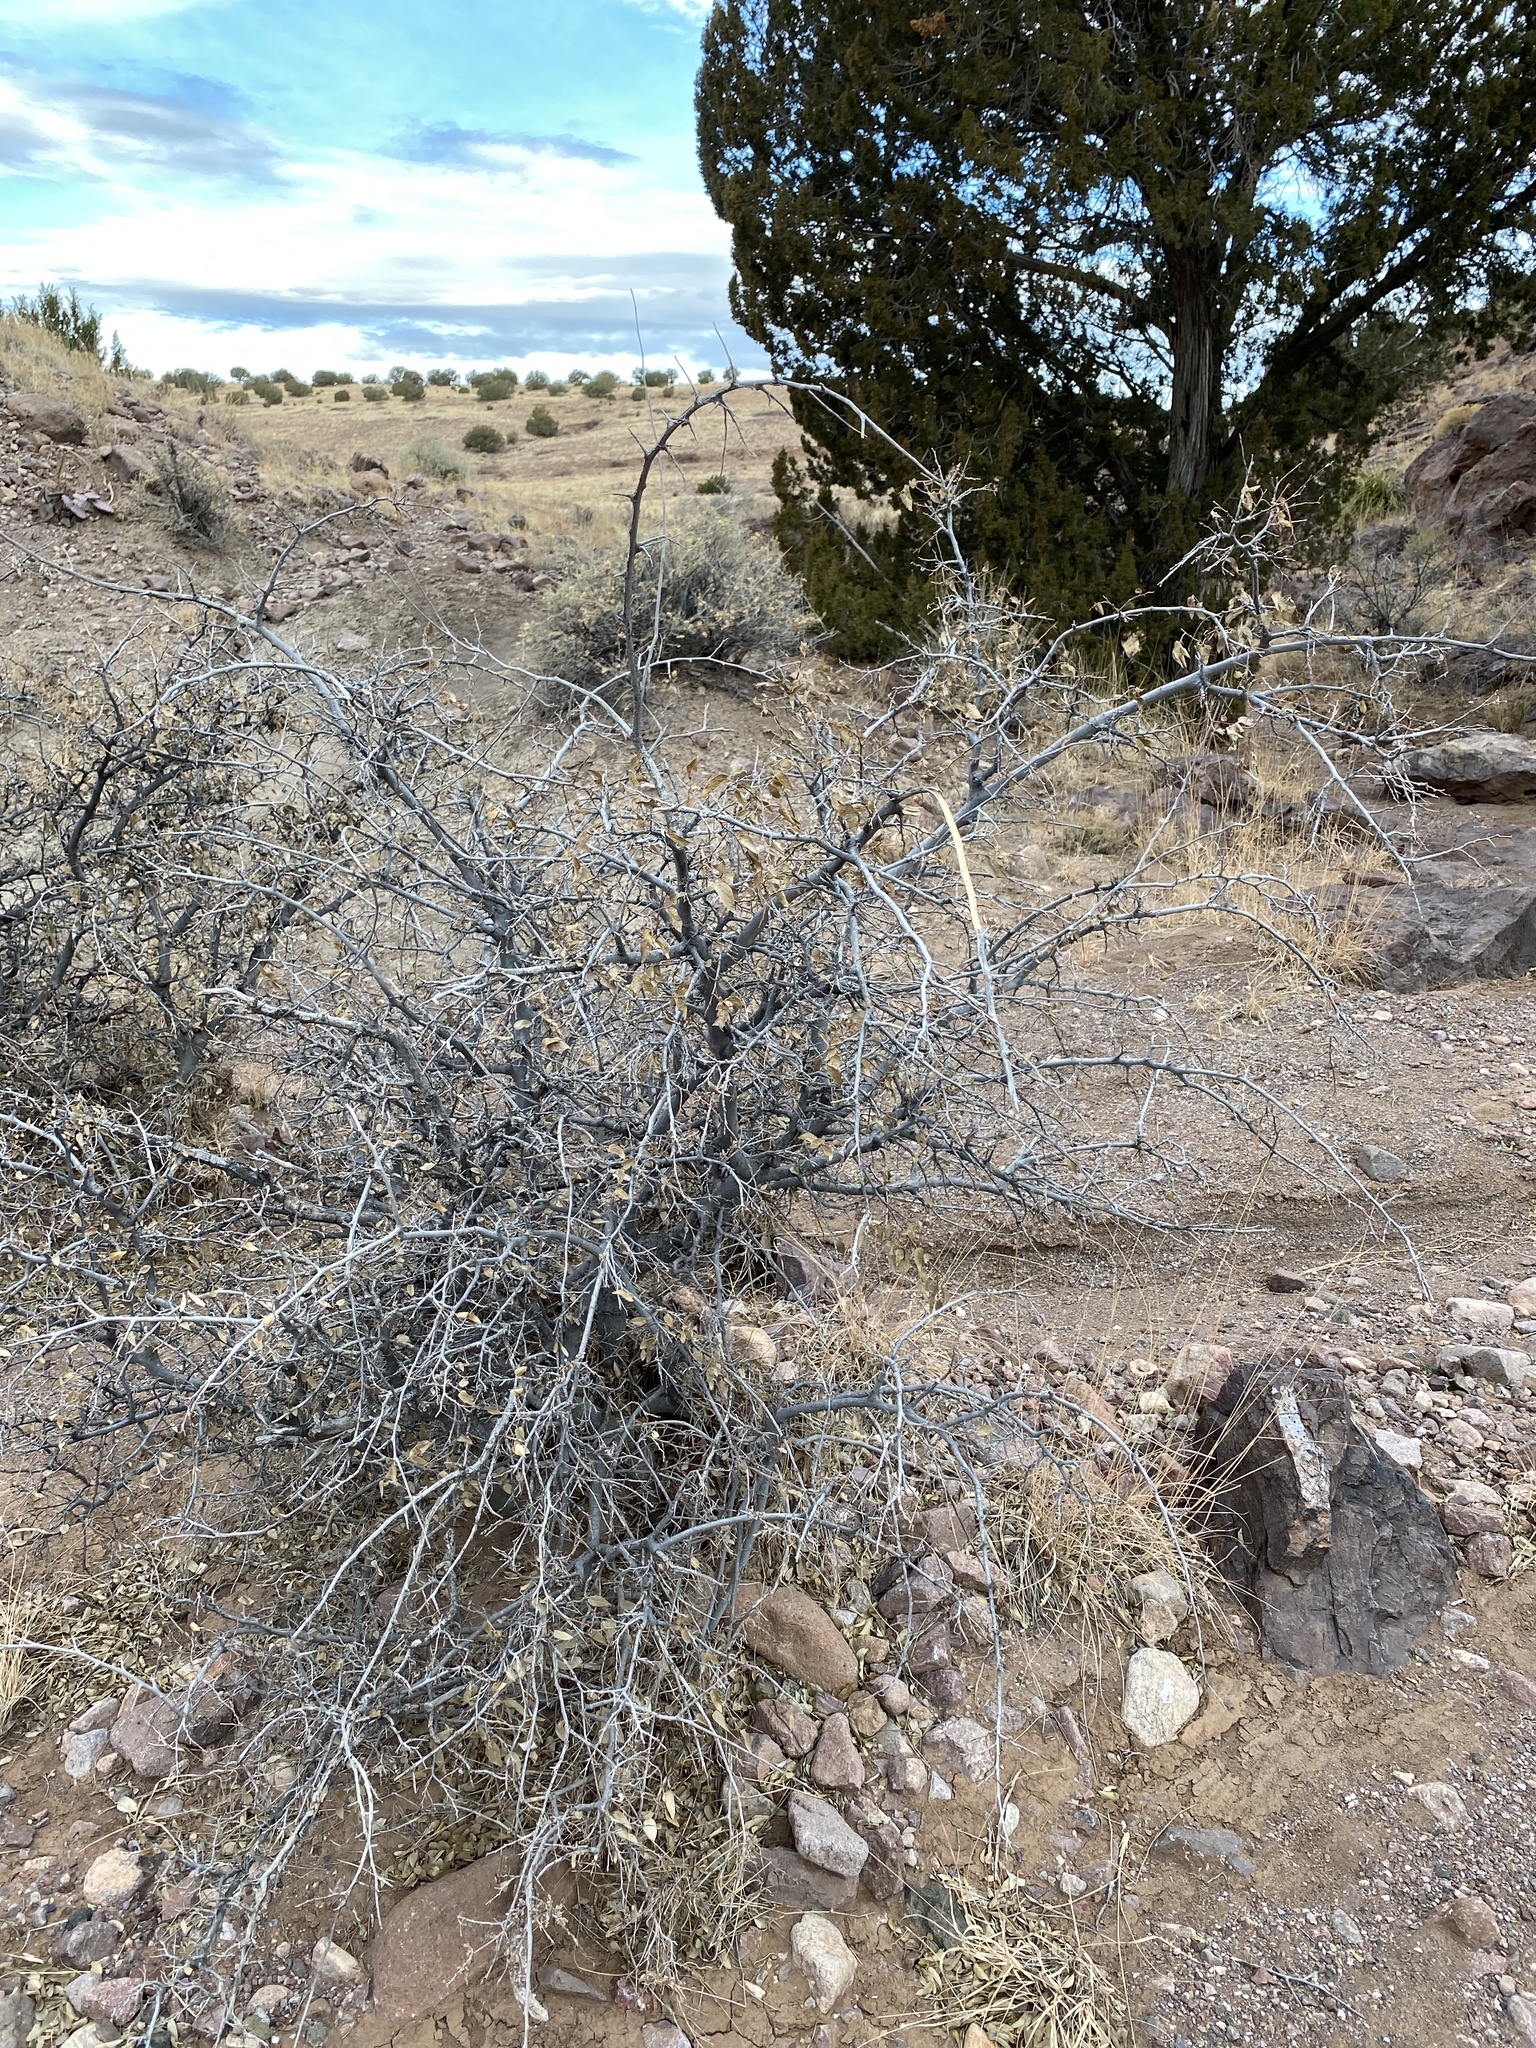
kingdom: Plantae
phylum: Tracheophyta
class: Magnoliopsida
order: Rosales
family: Cannabaceae
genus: Celtis
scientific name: Celtis reticulata
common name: Netleaf hackberry
